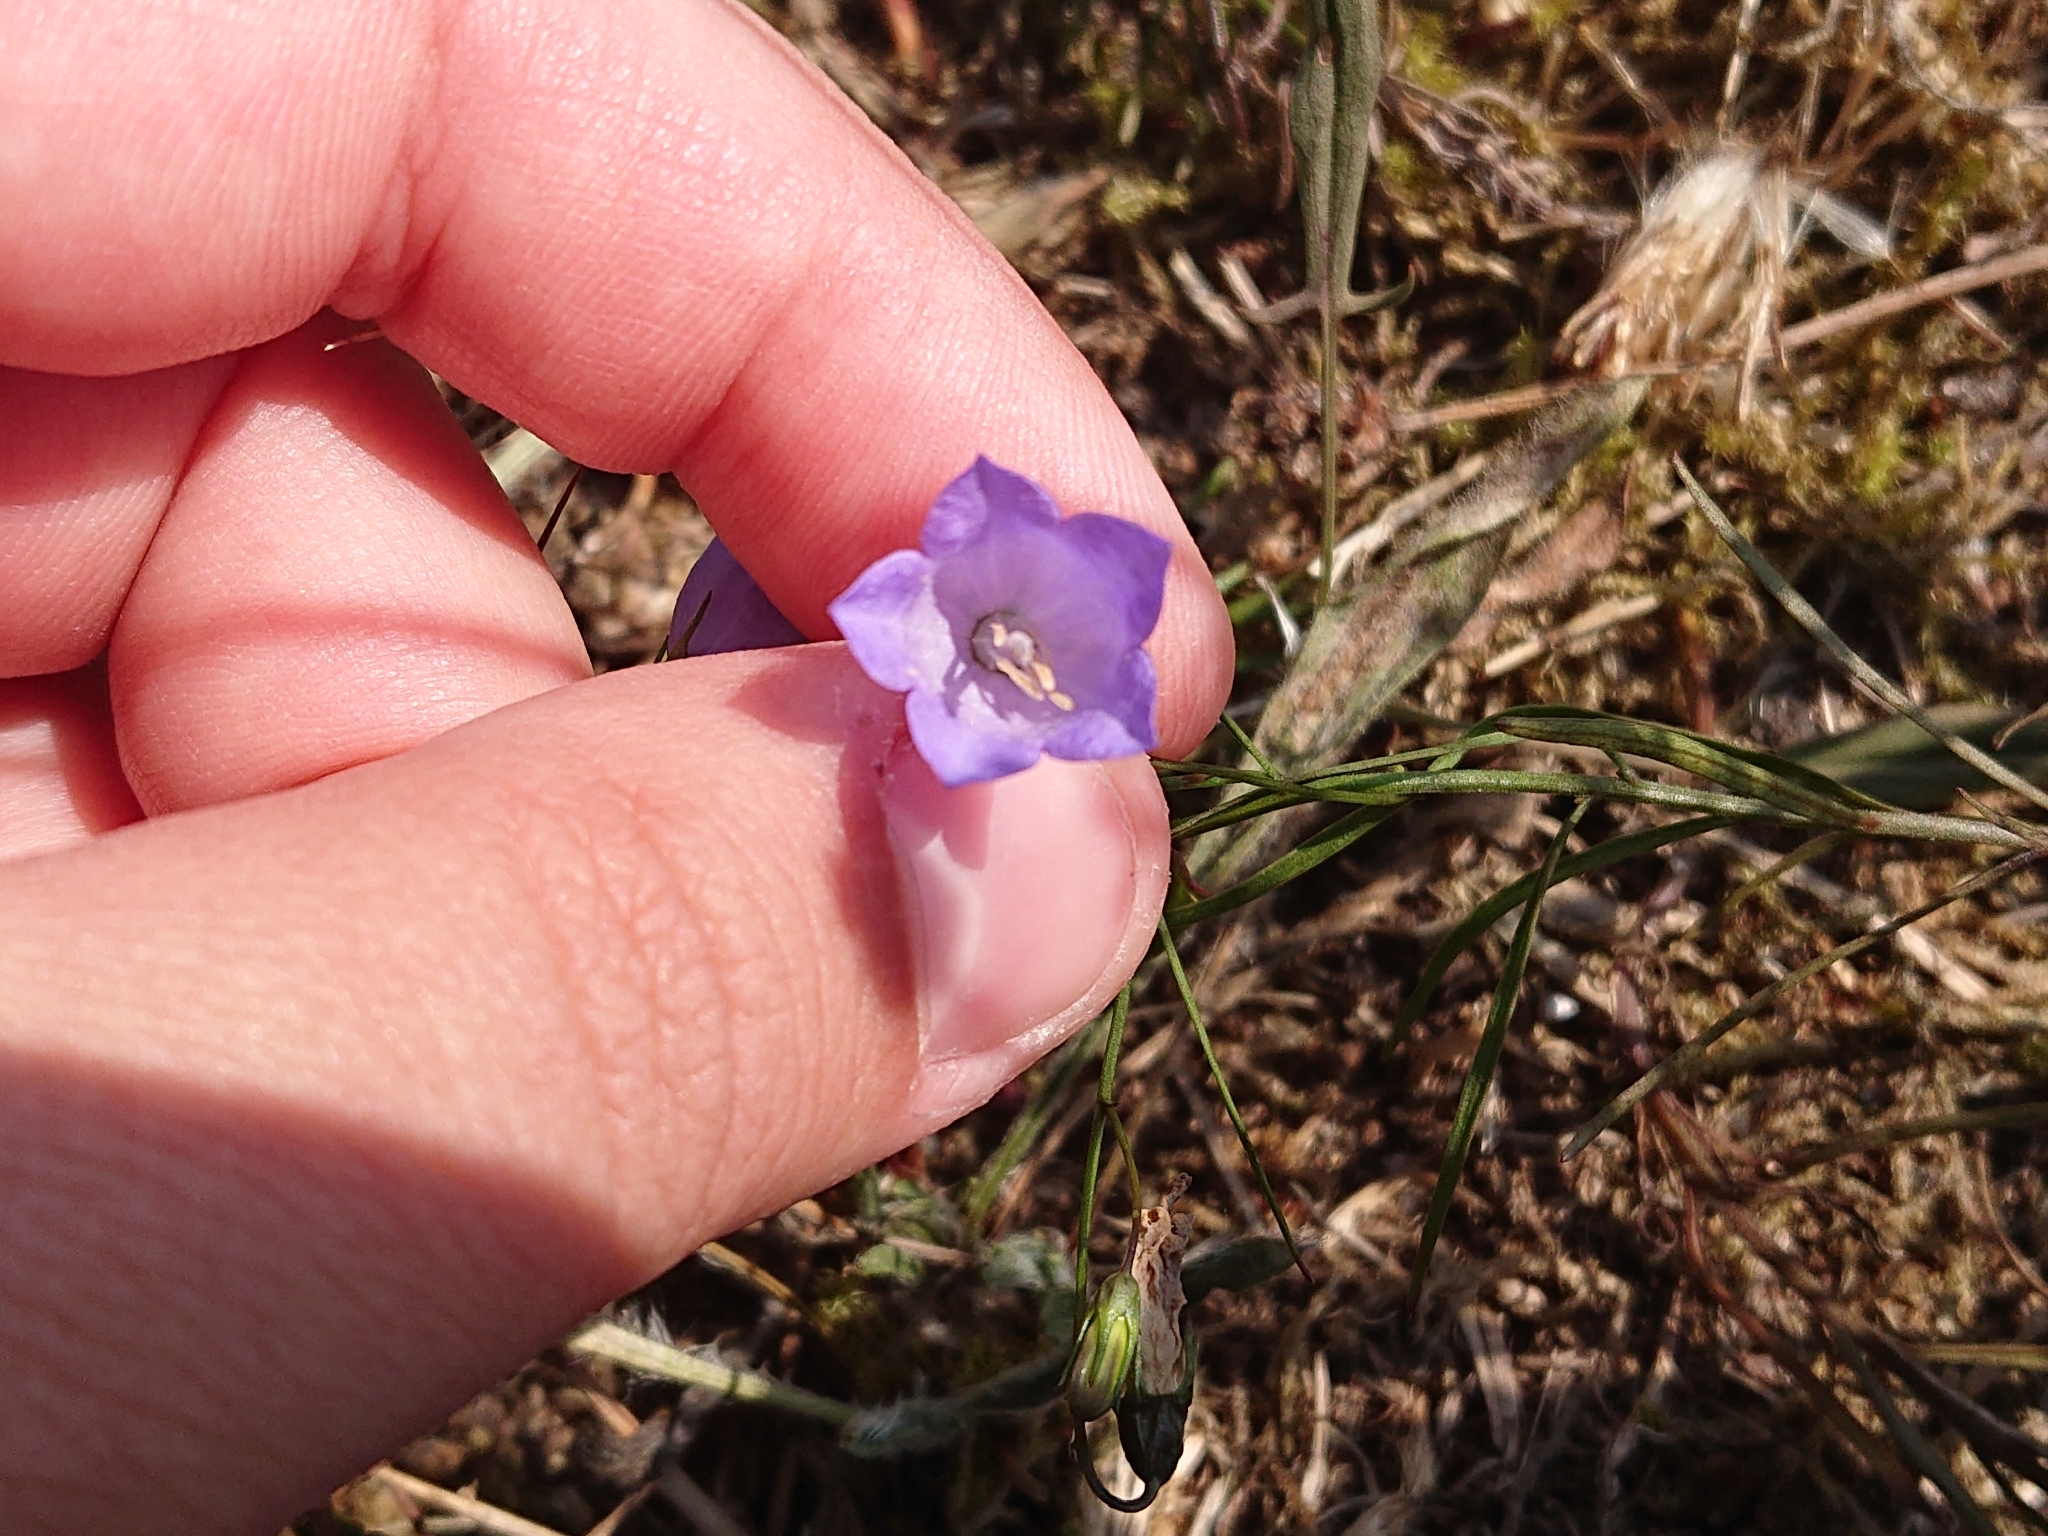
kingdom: Plantae
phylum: Tracheophyta
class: Magnoliopsida
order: Asterales
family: Campanulaceae
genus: Campanula
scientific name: Campanula rotundifolia
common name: Harebell
